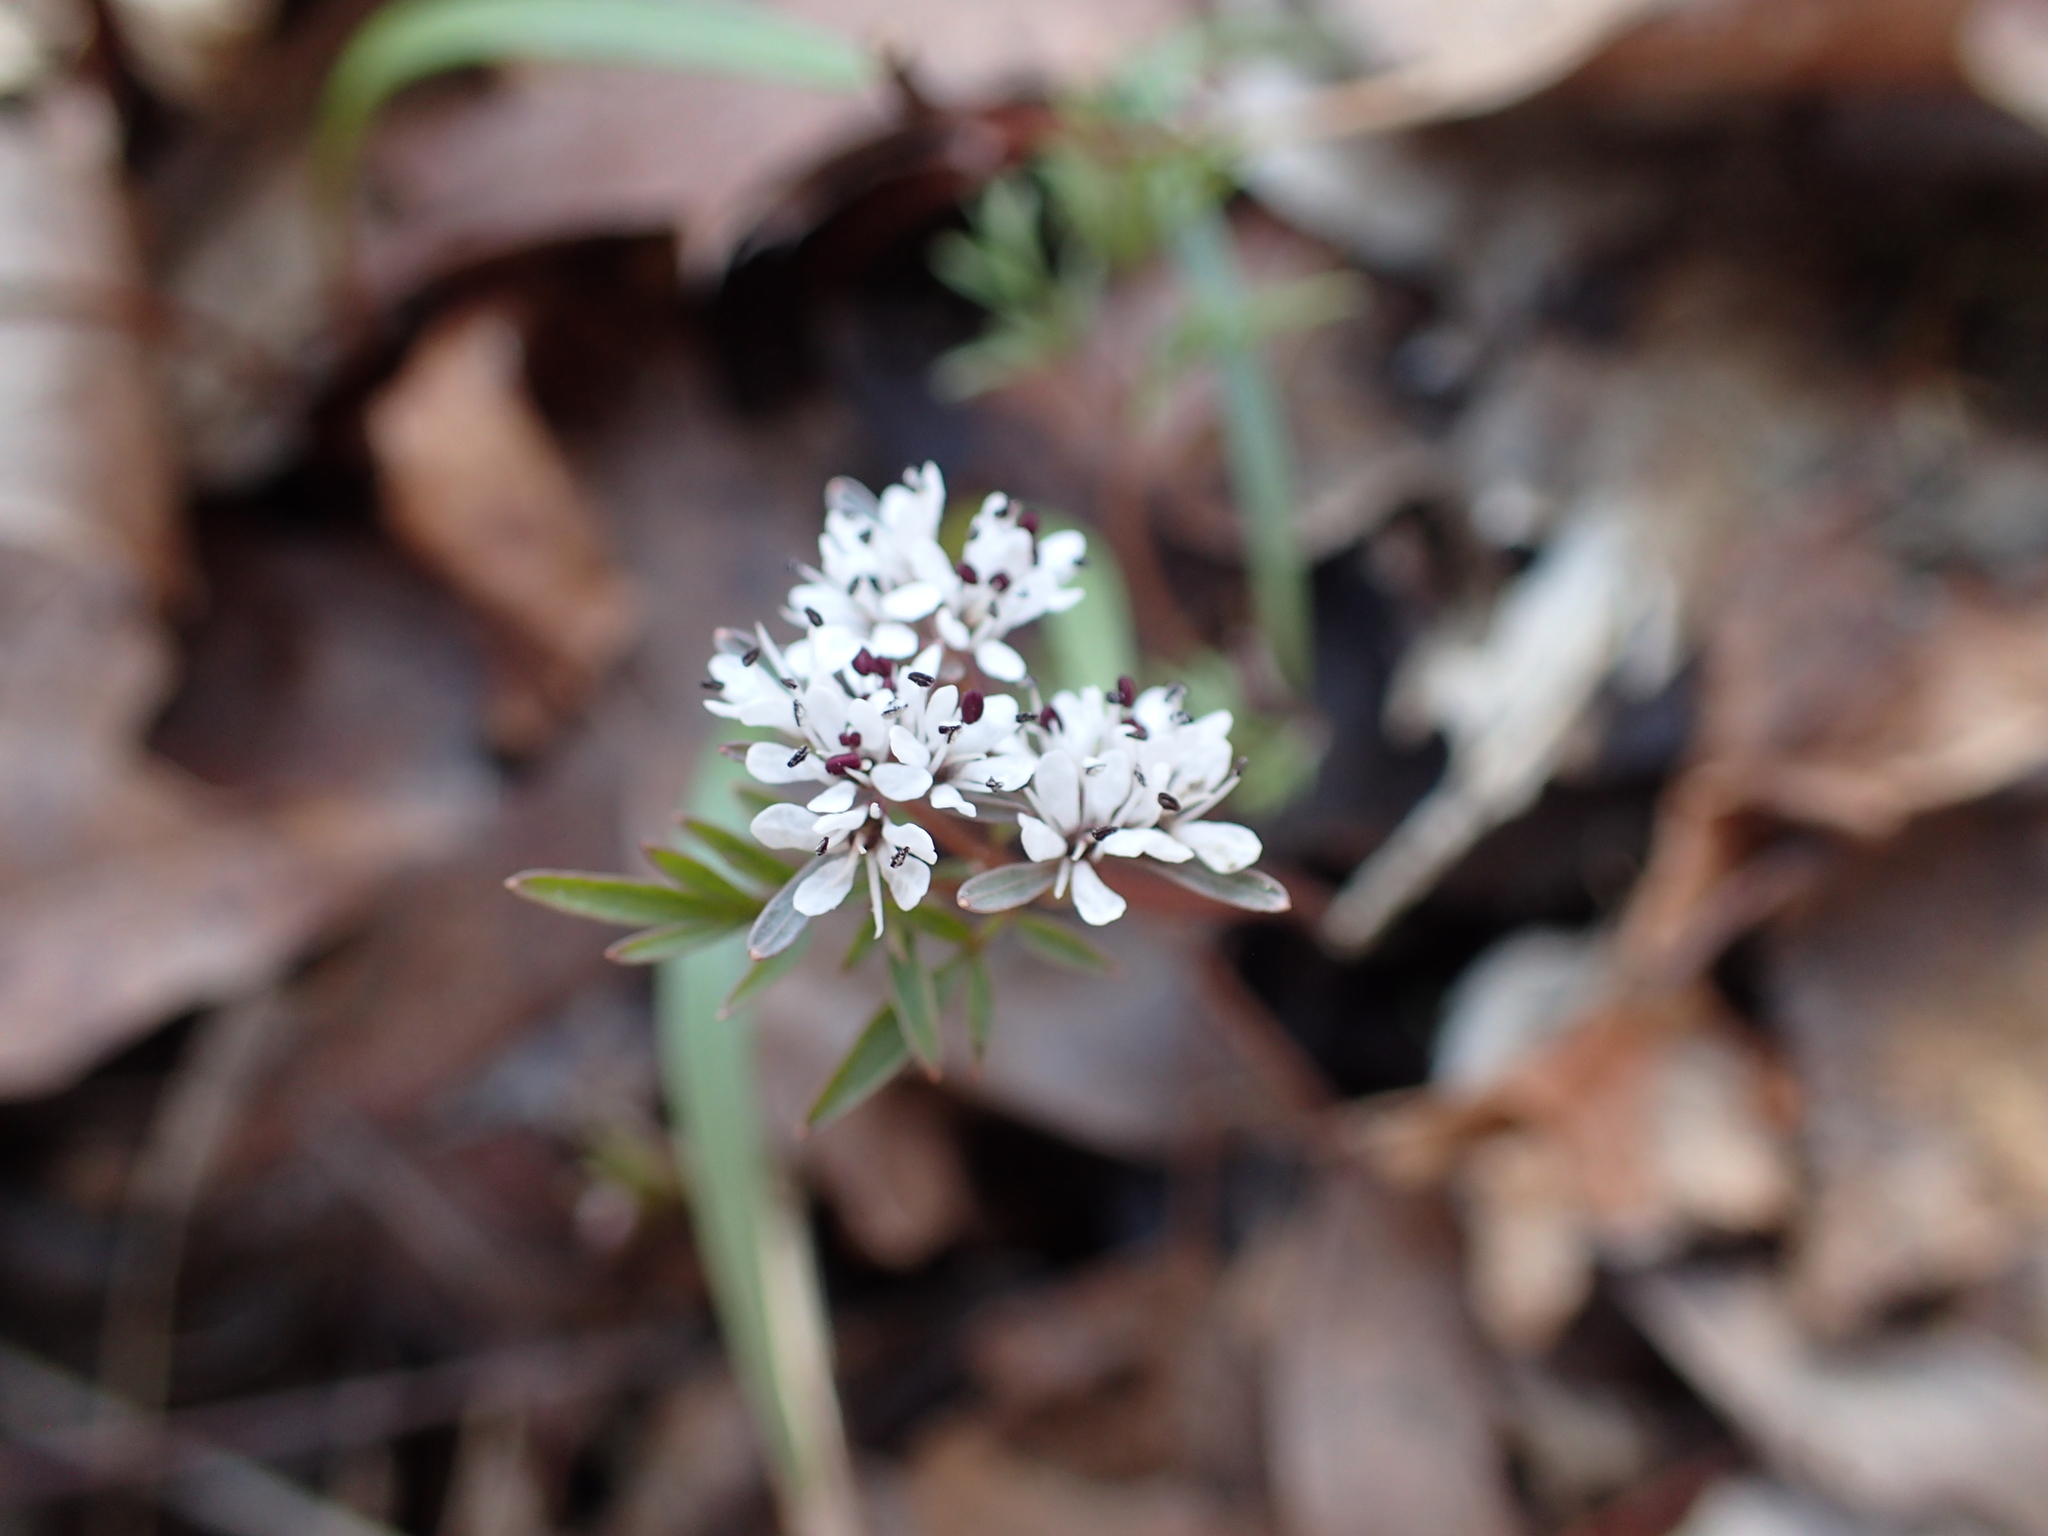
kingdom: Plantae
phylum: Tracheophyta
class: Magnoliopsida
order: Apiales
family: Apiaceae
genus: Erigenia
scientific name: Erigenia bulbosa
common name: Pepper-and-salt
